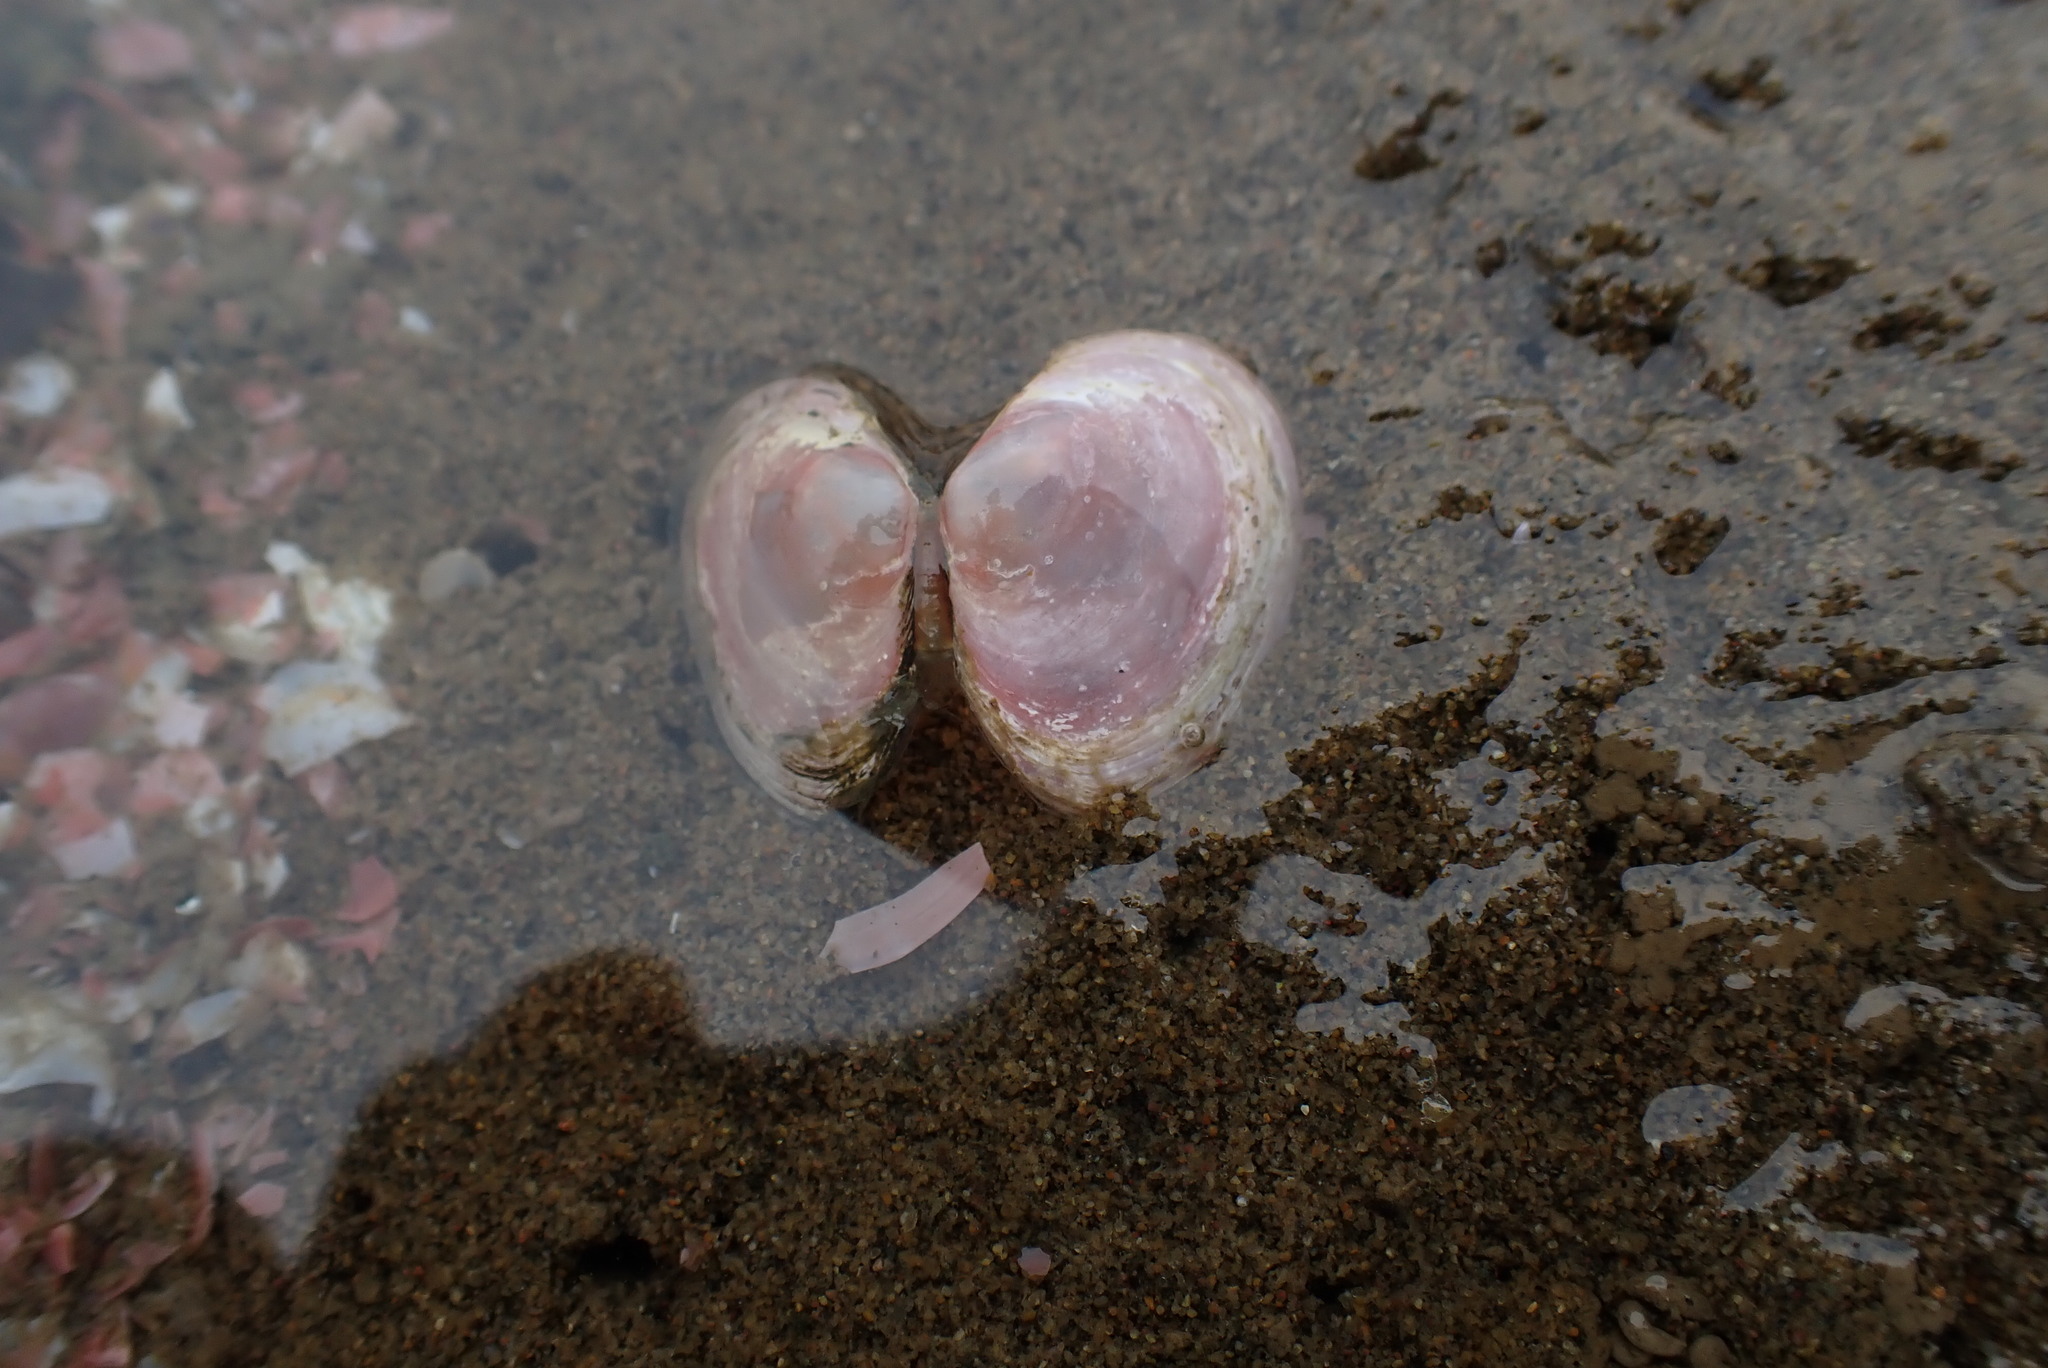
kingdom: Animalia
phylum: Mollusca
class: Bivalvia
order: Cardiida
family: Tellinidae
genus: Macoma
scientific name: Macoma balthica
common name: Baltic tellin
